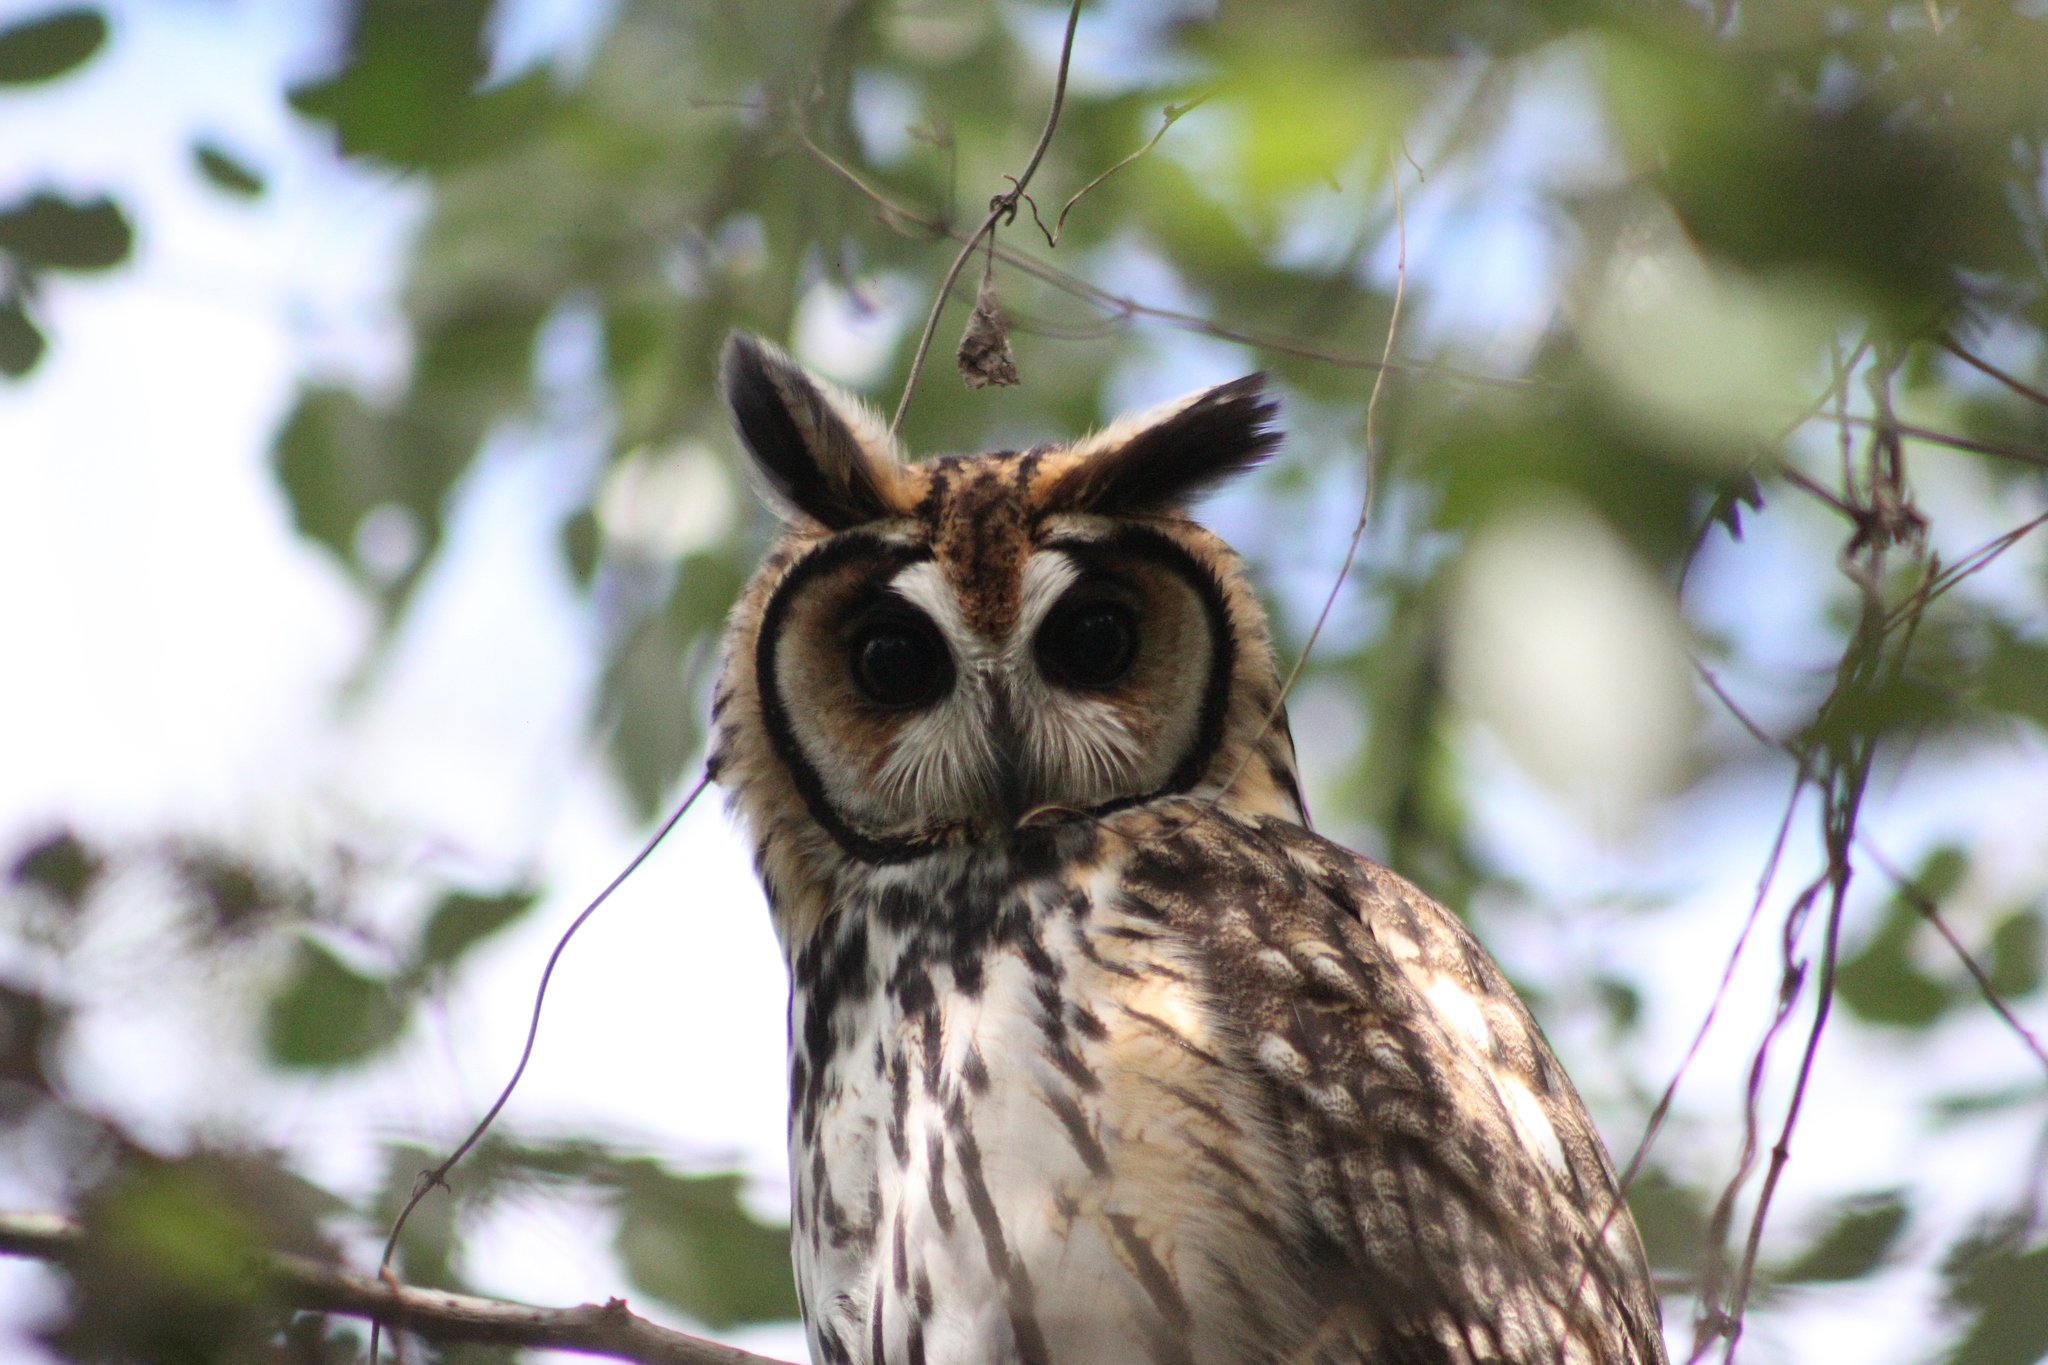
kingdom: Animalia
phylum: Chordata
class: Aves
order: Strigiformes
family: Strigidae
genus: Pseudoscops
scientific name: Pseudoscops clamator
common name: Striped owl
